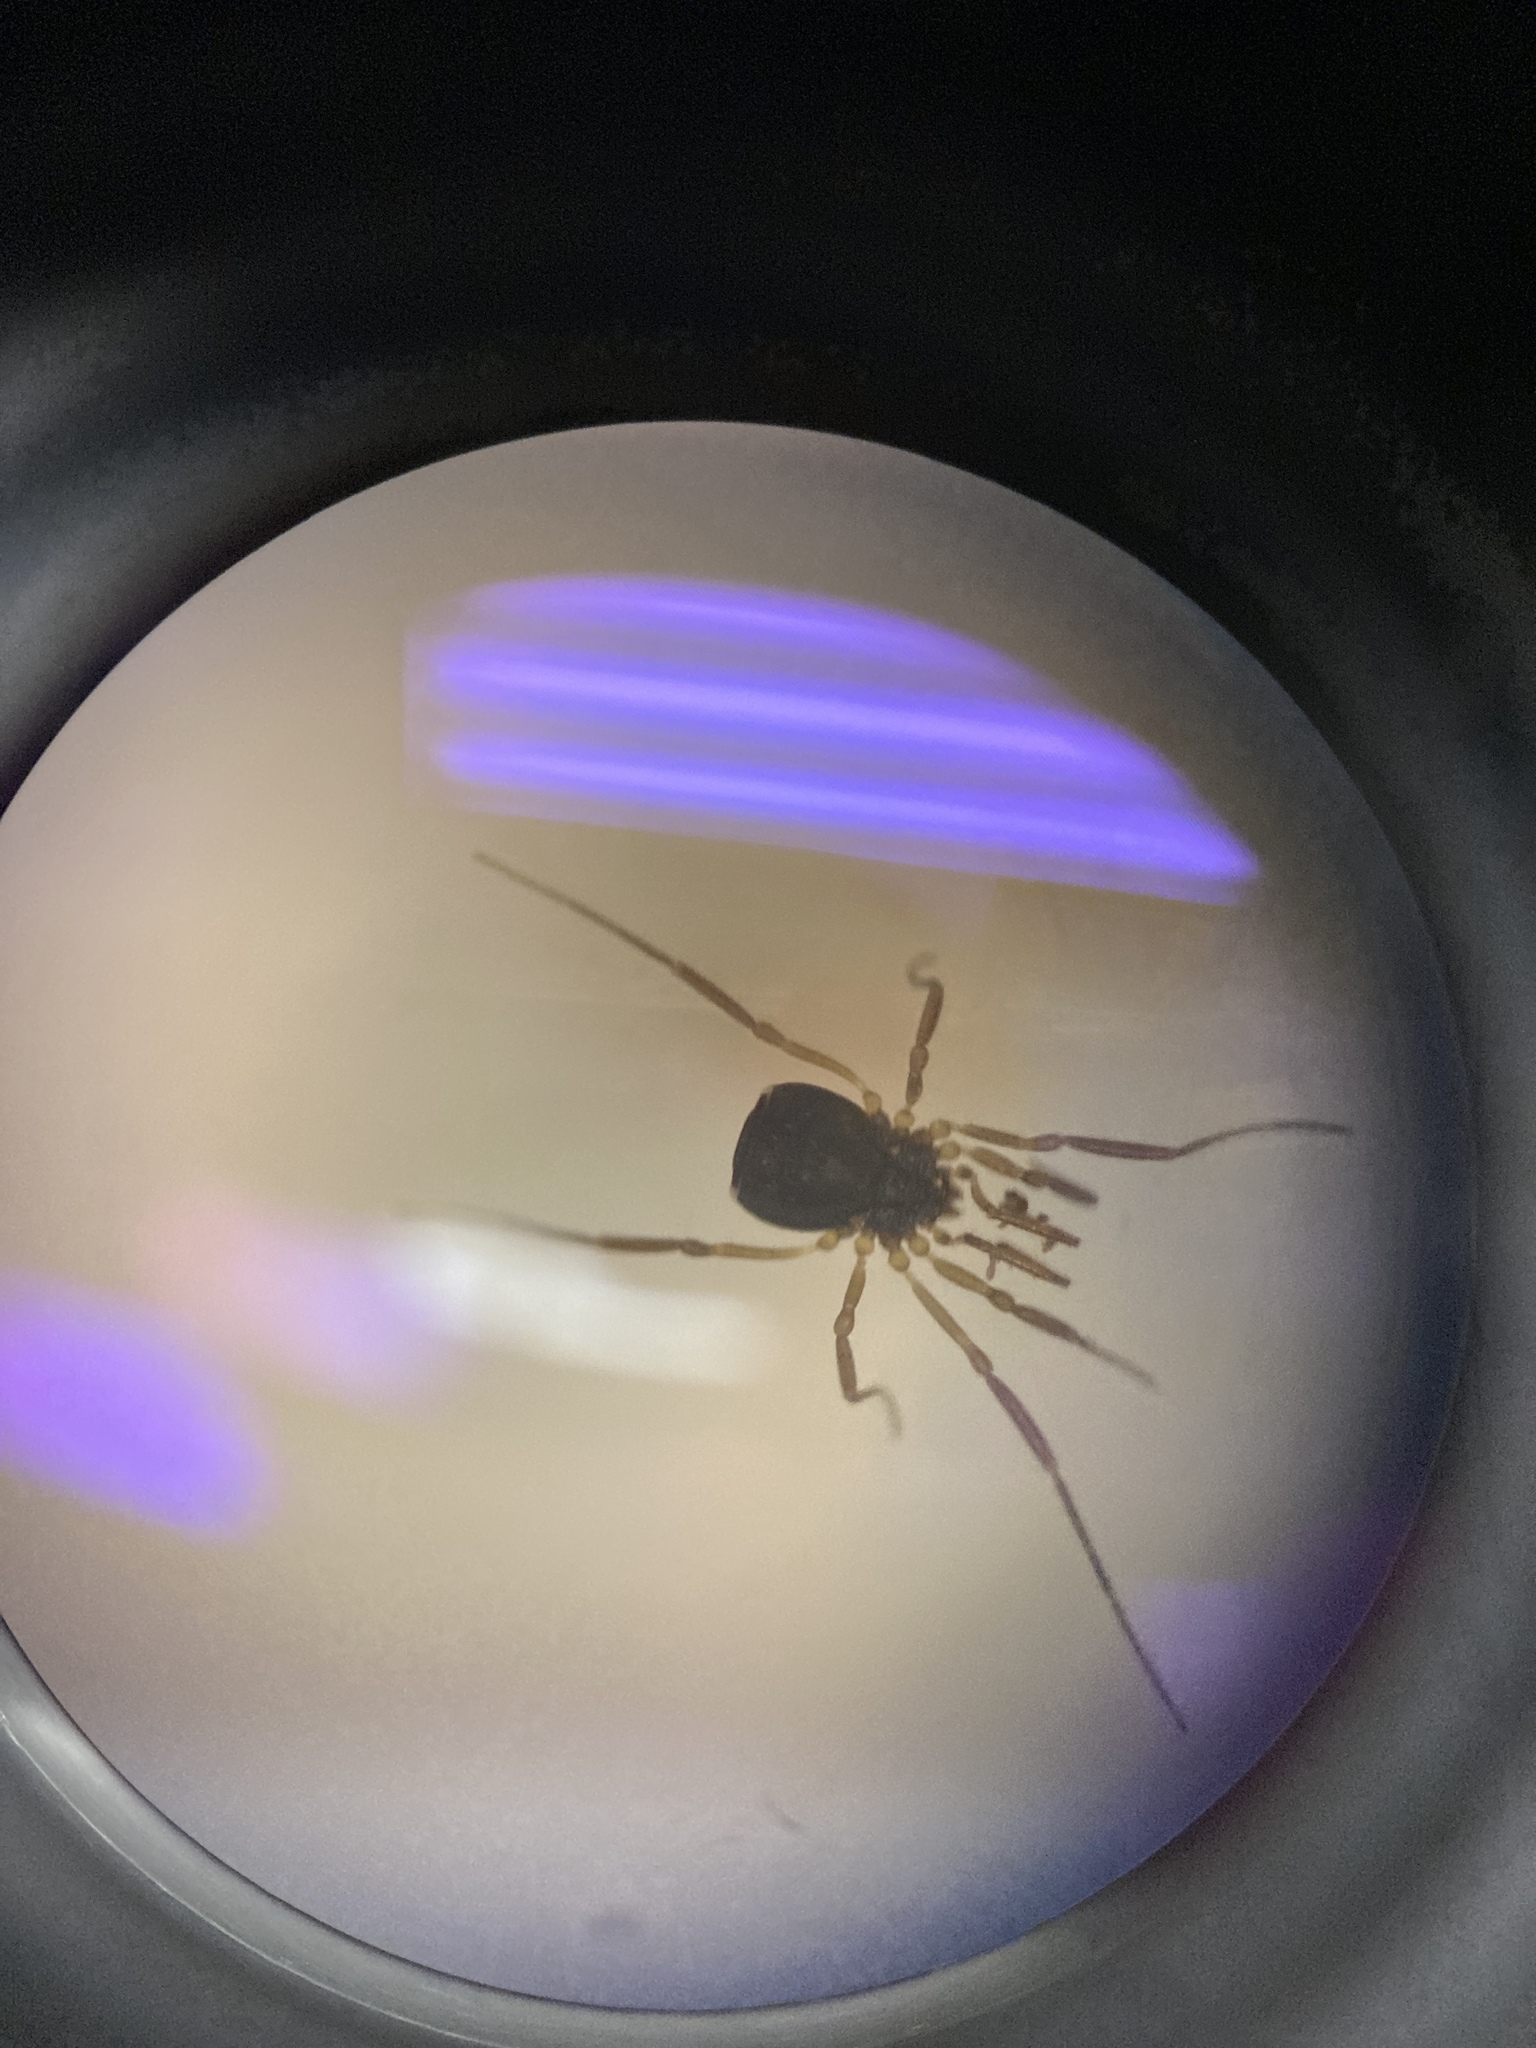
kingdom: Animalia
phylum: Arthropoda
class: Arachnida
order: Opiliones
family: Taracidae
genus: Hesperonemastoma
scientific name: Hesperonemastoma modestum
